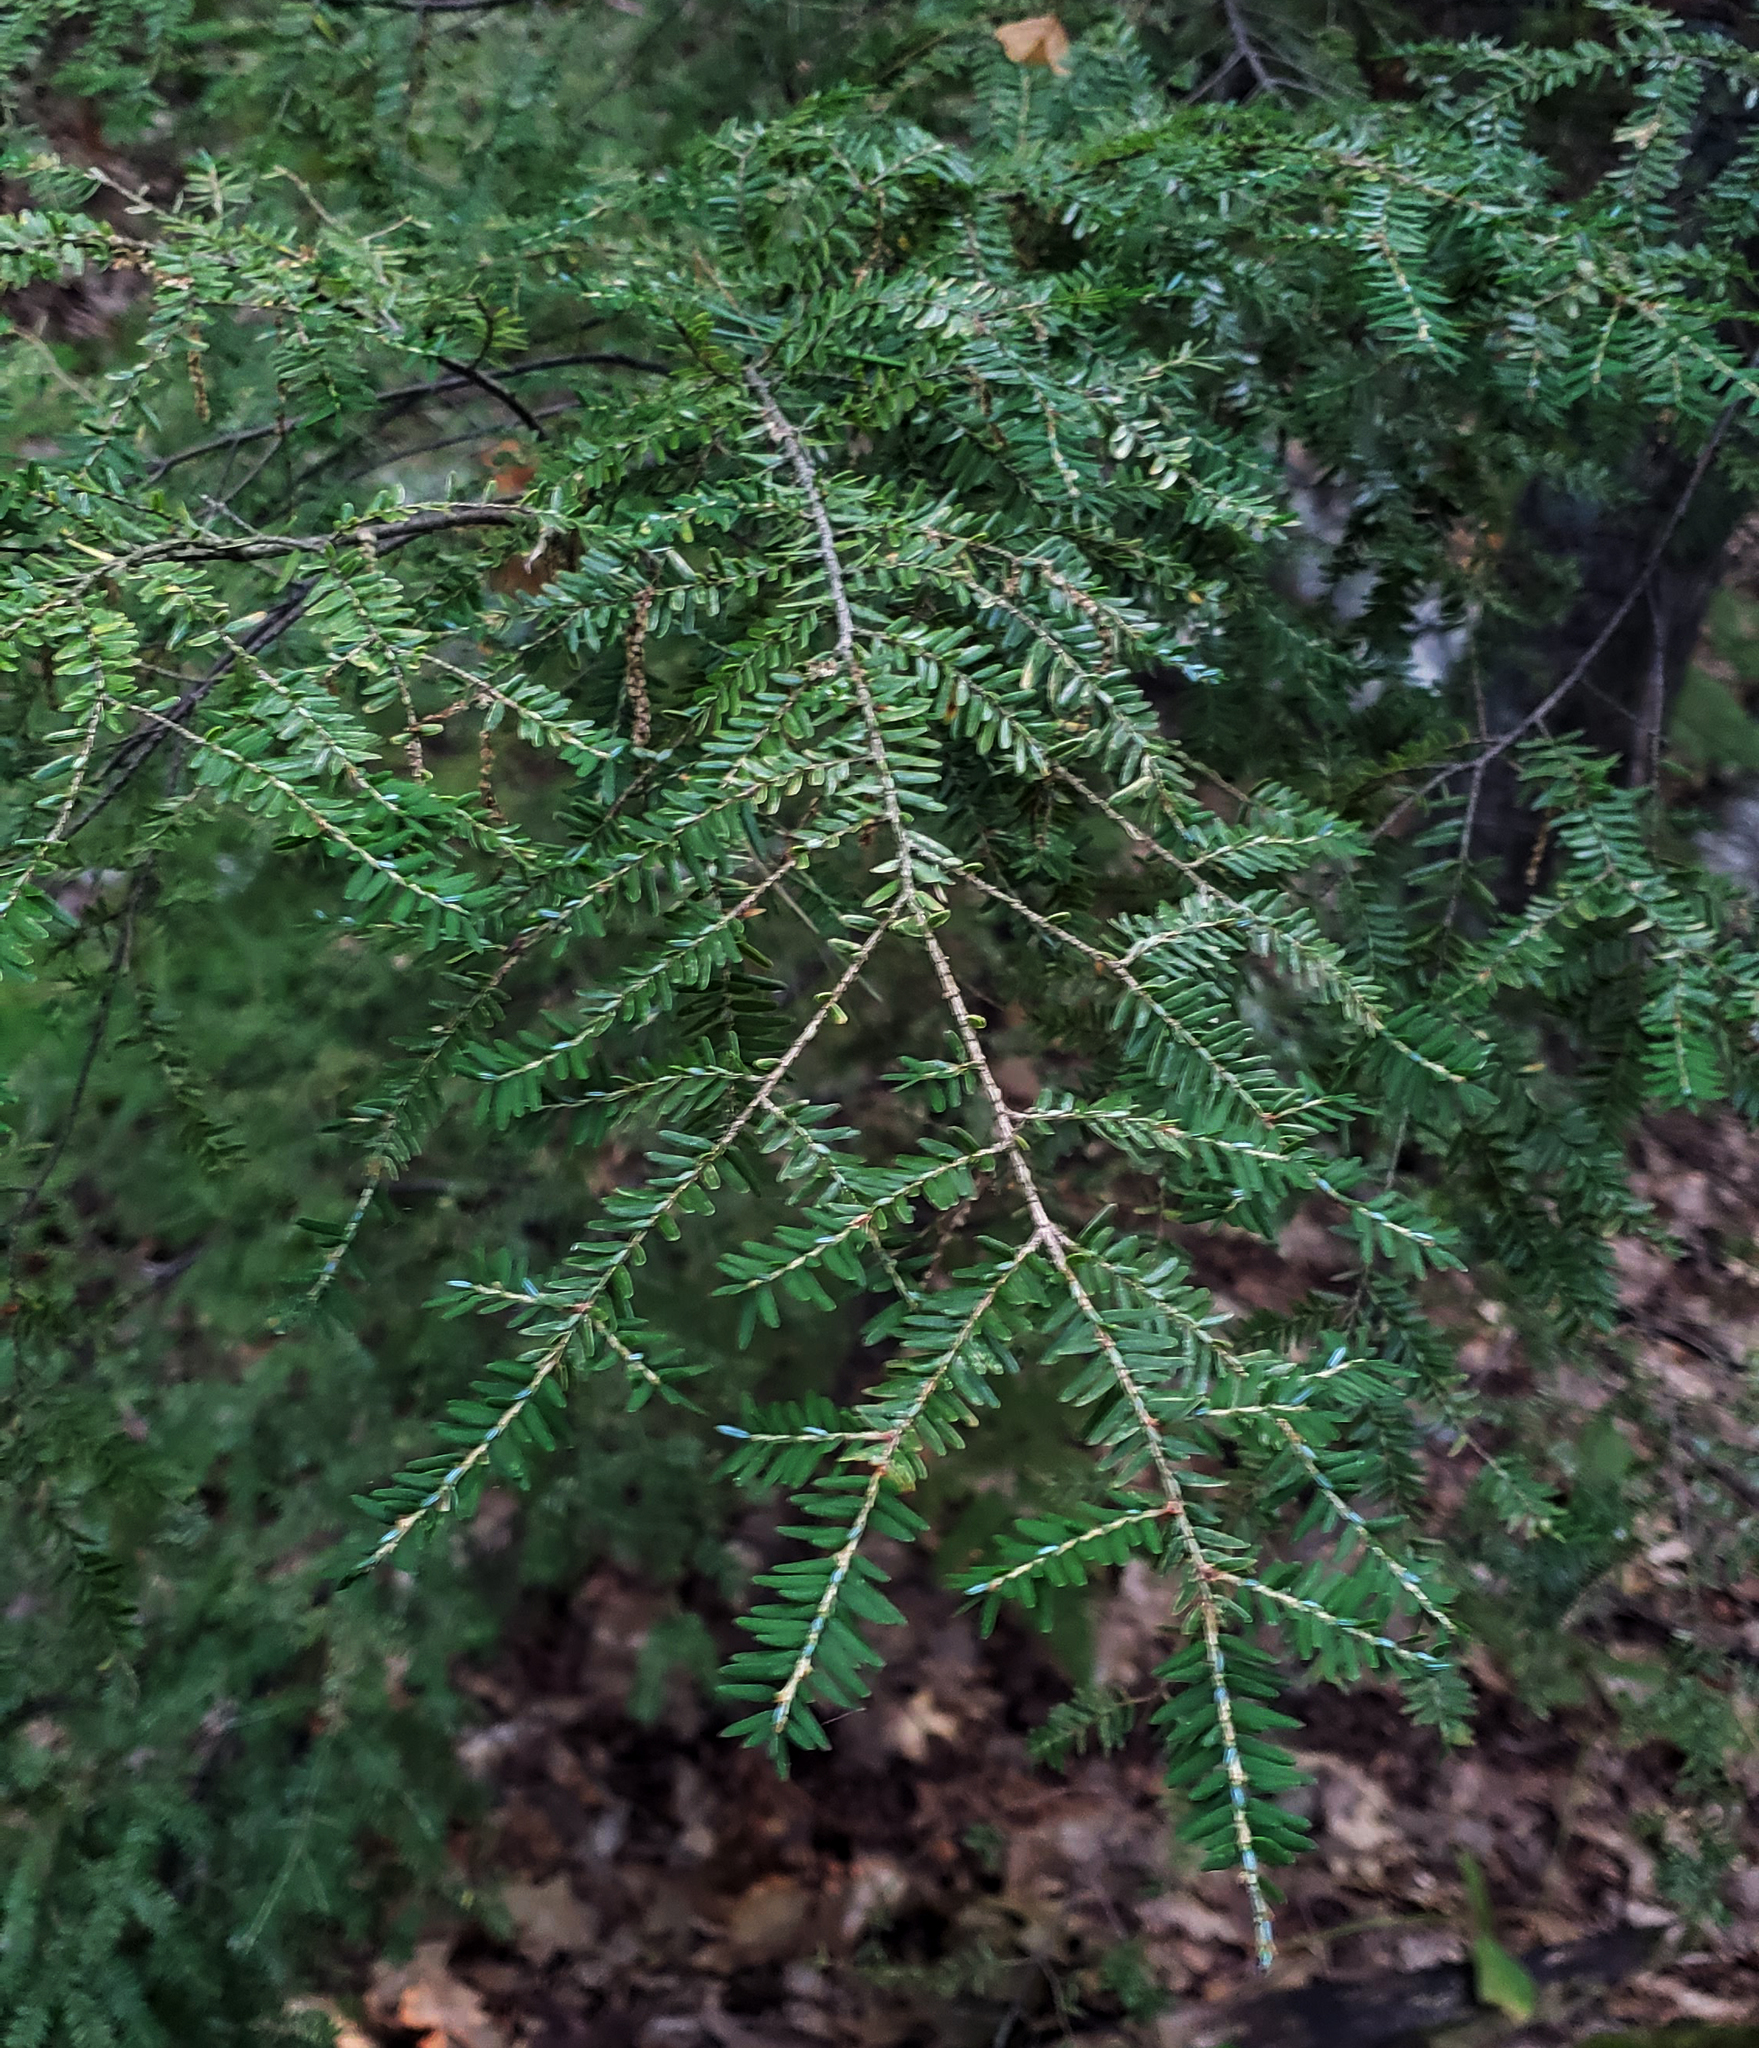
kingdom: Plantae
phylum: Tracheophyta
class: Pinopsida
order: Pinales
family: Pinaceae
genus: Tsuga
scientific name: Tsuga canadensis
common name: Eastern hemlock
